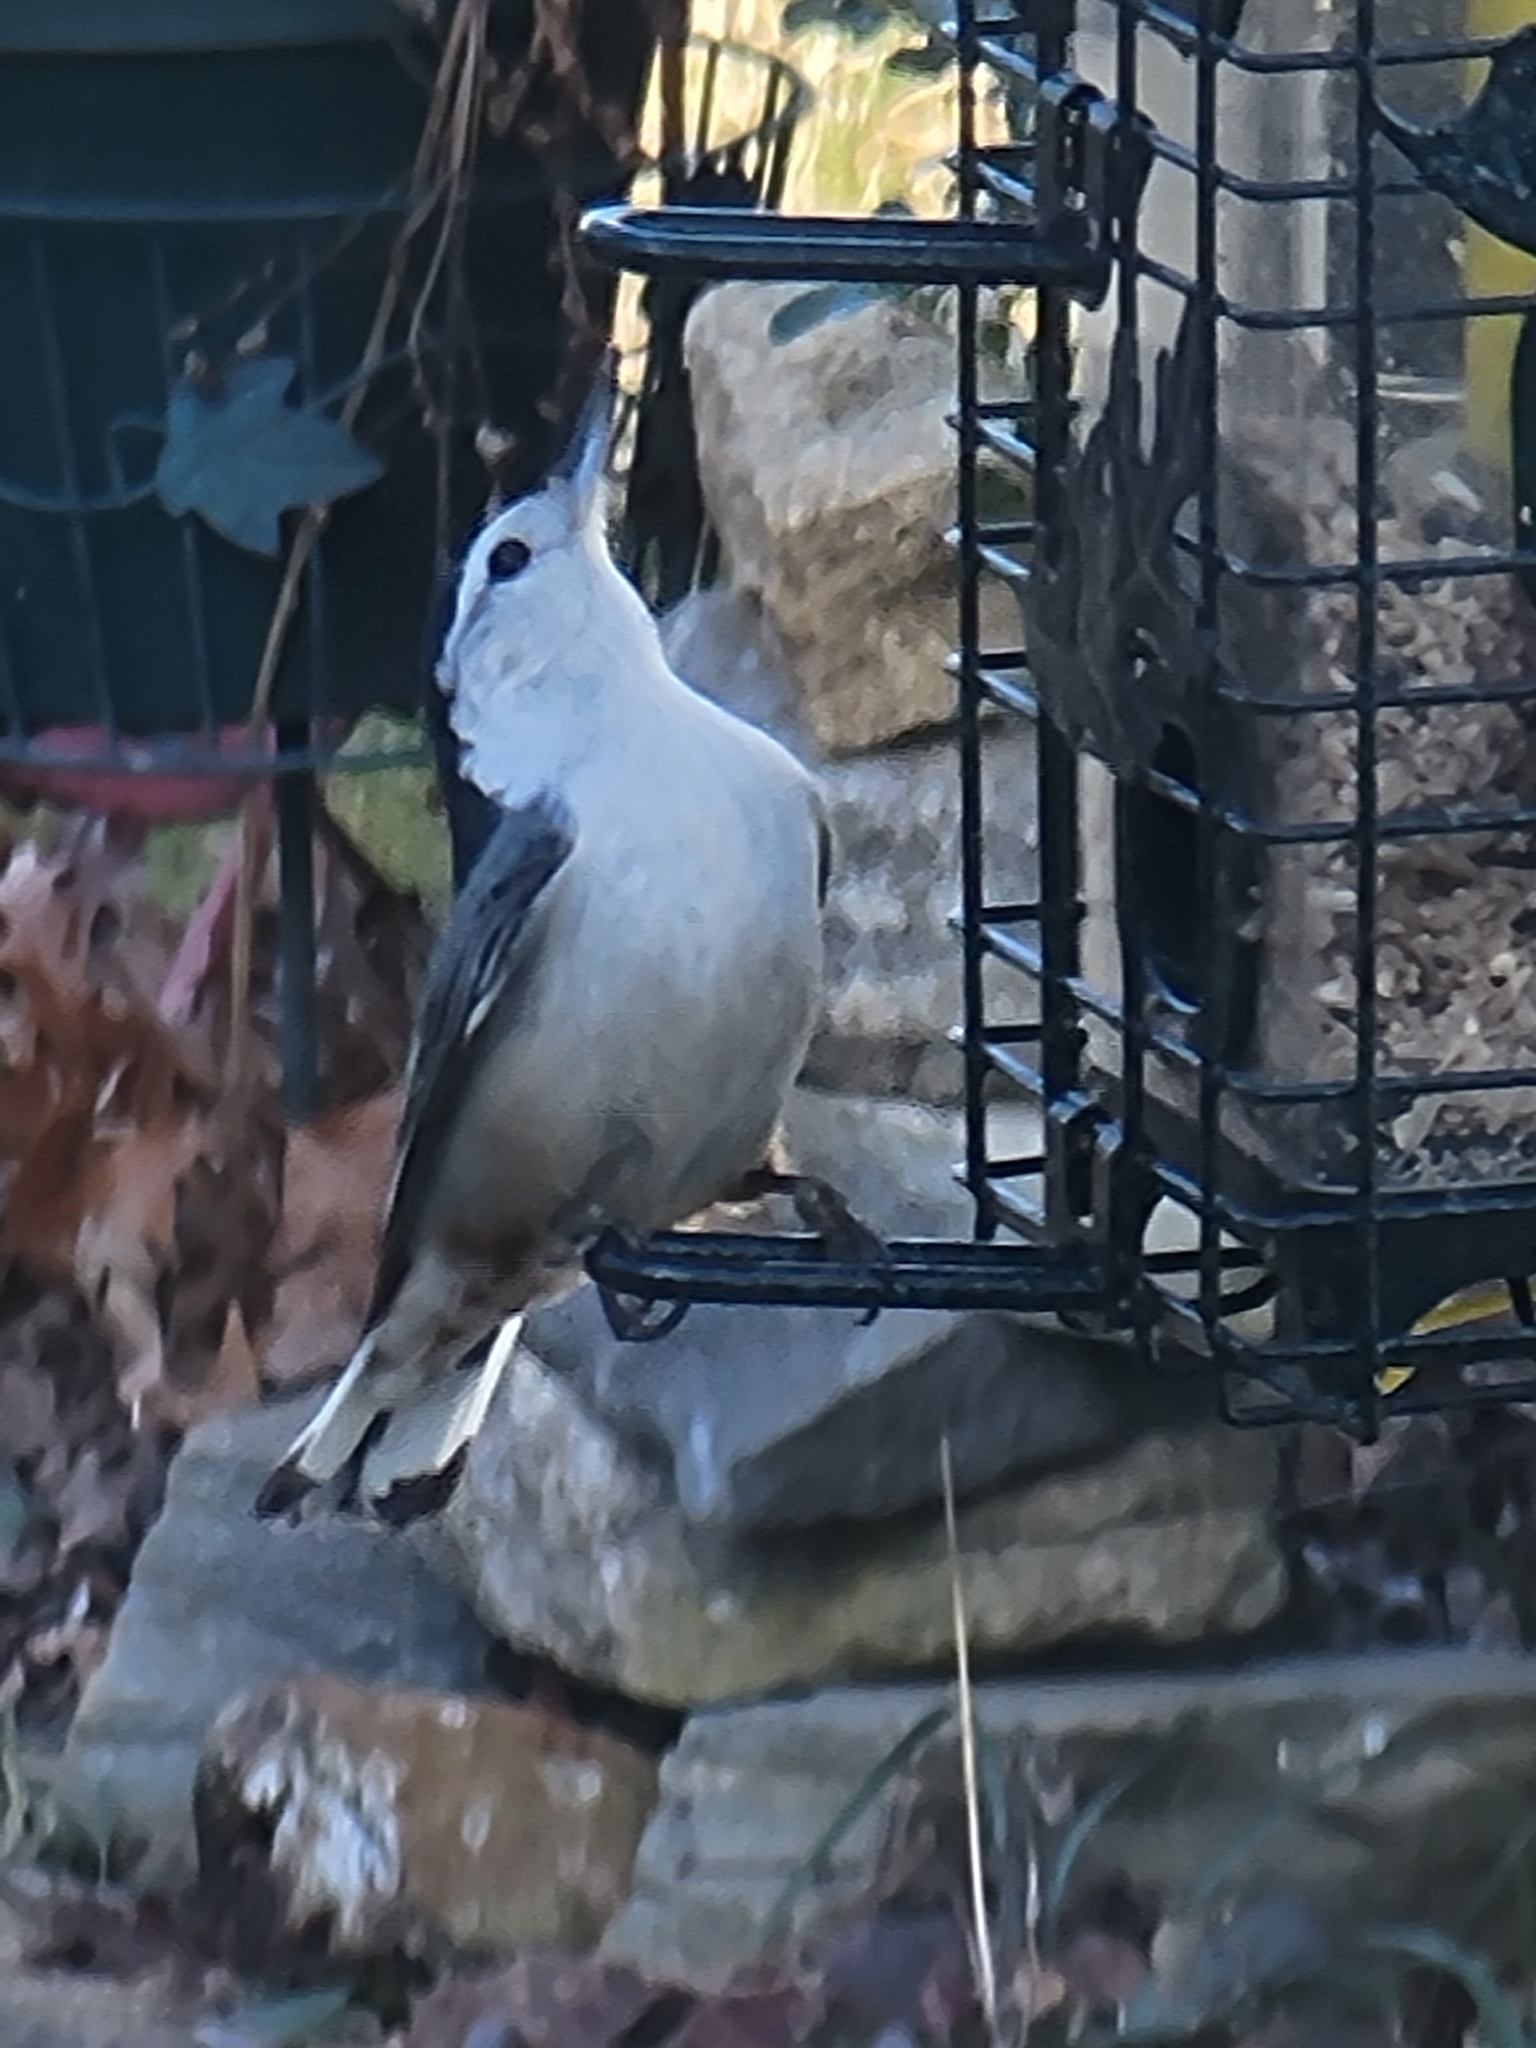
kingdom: Animalia
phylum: Chordata
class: Aves
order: Passeriformes
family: Sittidae
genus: Sitta
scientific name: Sitta carolinensis
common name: White-breasted nuthatch
